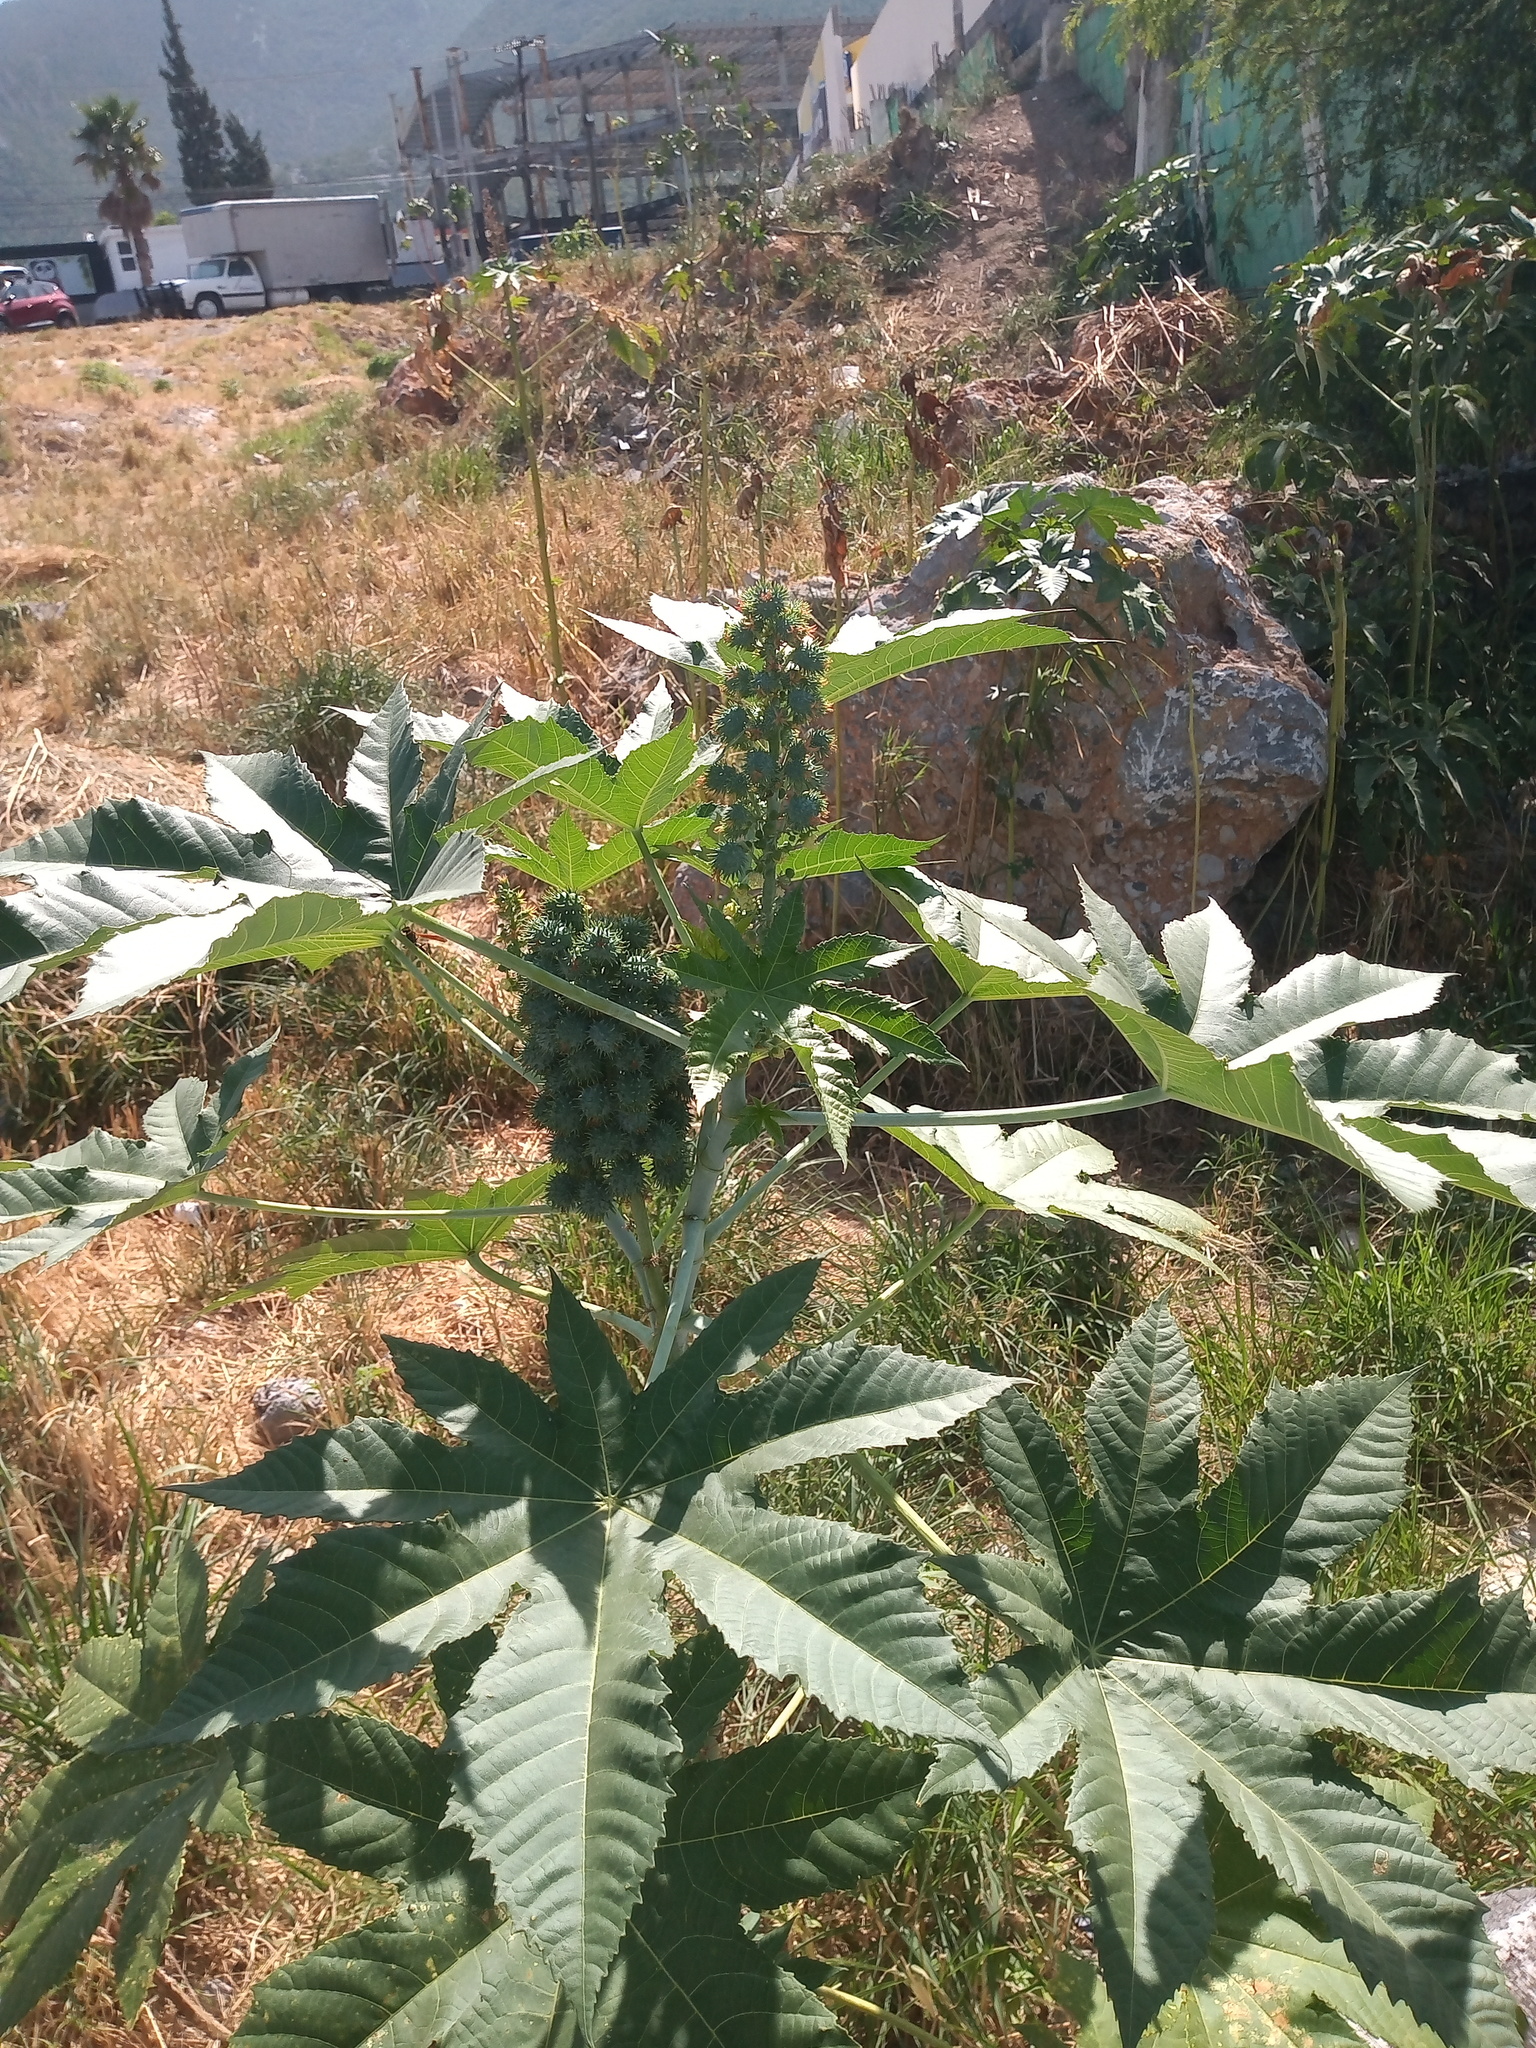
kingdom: Plantae
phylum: Tracheophyta
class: Magnoliopsida
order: Malpighiales
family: Euphorbiaceae
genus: Ricinus
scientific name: Ricinus communis
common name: Castor-oil-plant
